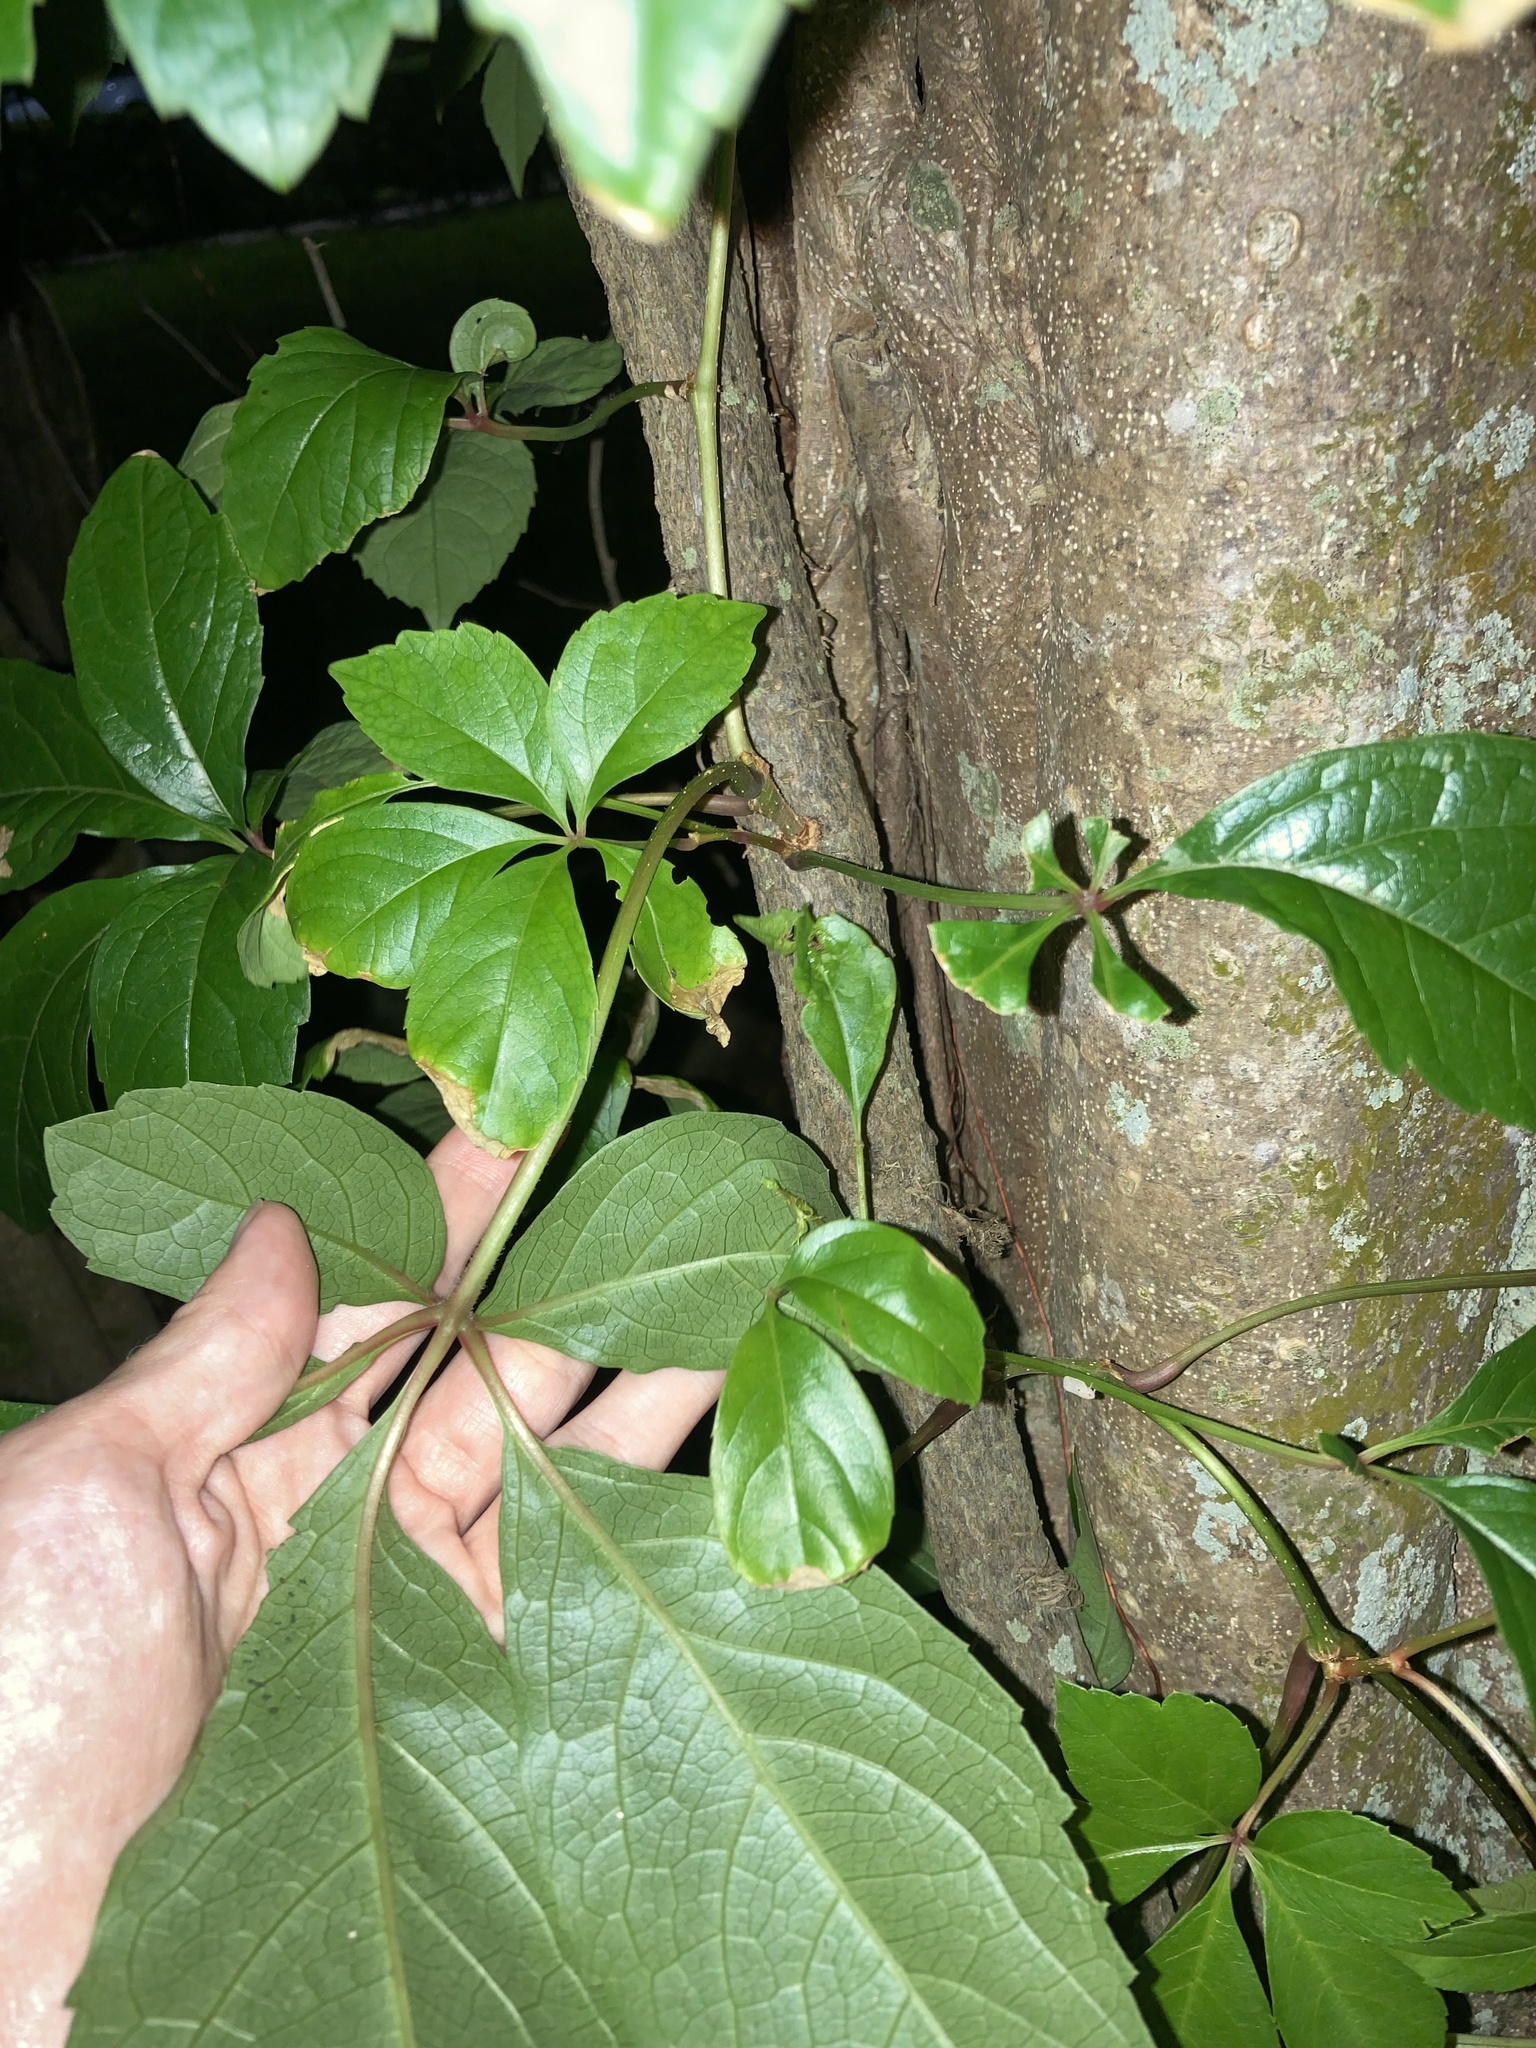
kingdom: Plantae
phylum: Tracheophyta
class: Magnoliopsida
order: Vitales
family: Vitaceae
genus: Parthenocissus
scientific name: Parthenocissus quinquefolia
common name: Virginia-creeper
